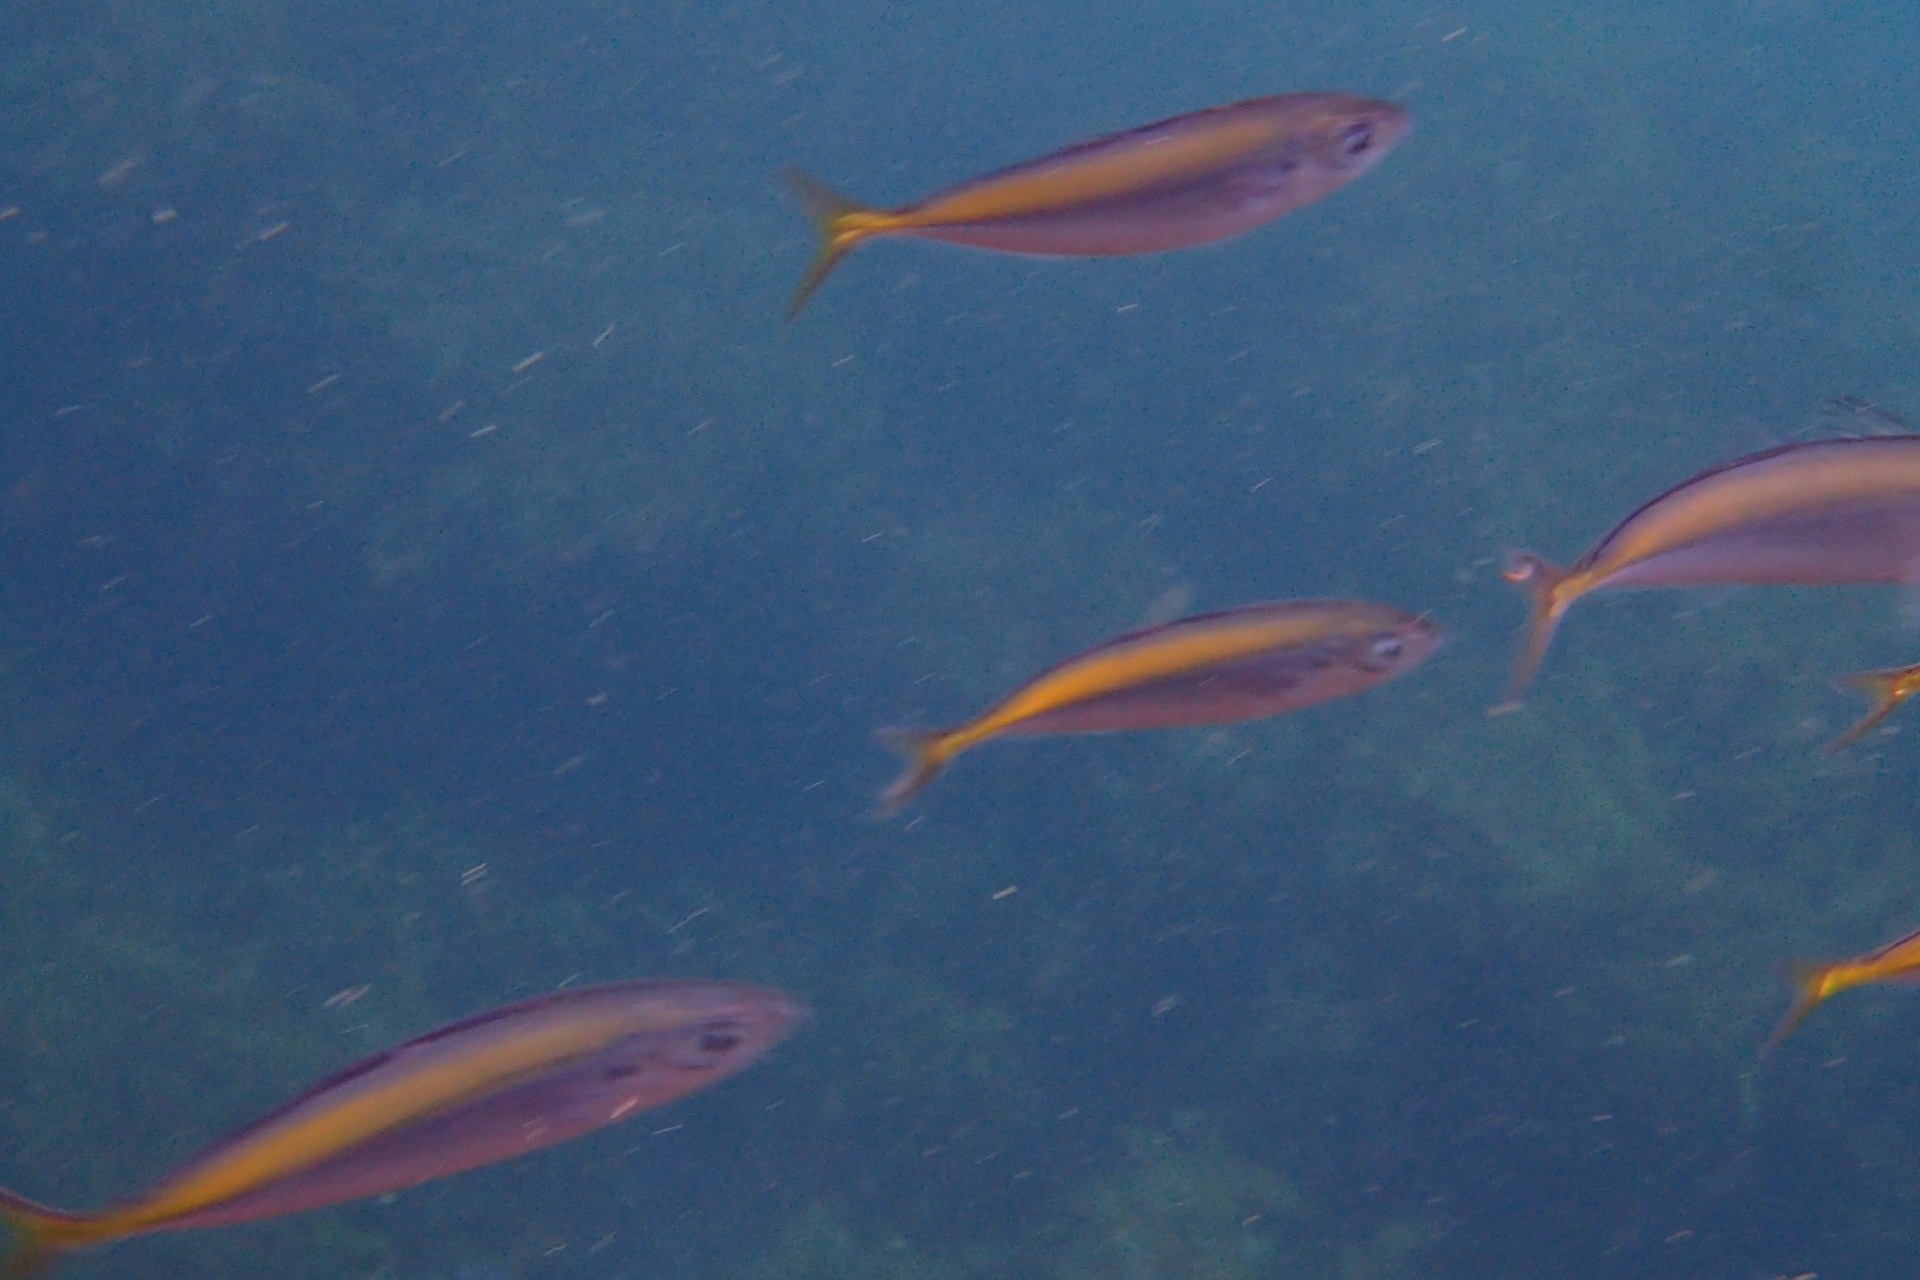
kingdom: Animalia
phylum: Chordata
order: Perciformes
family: Carangidae
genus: Decapterus
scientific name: Decapterus koheru
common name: Koheru
